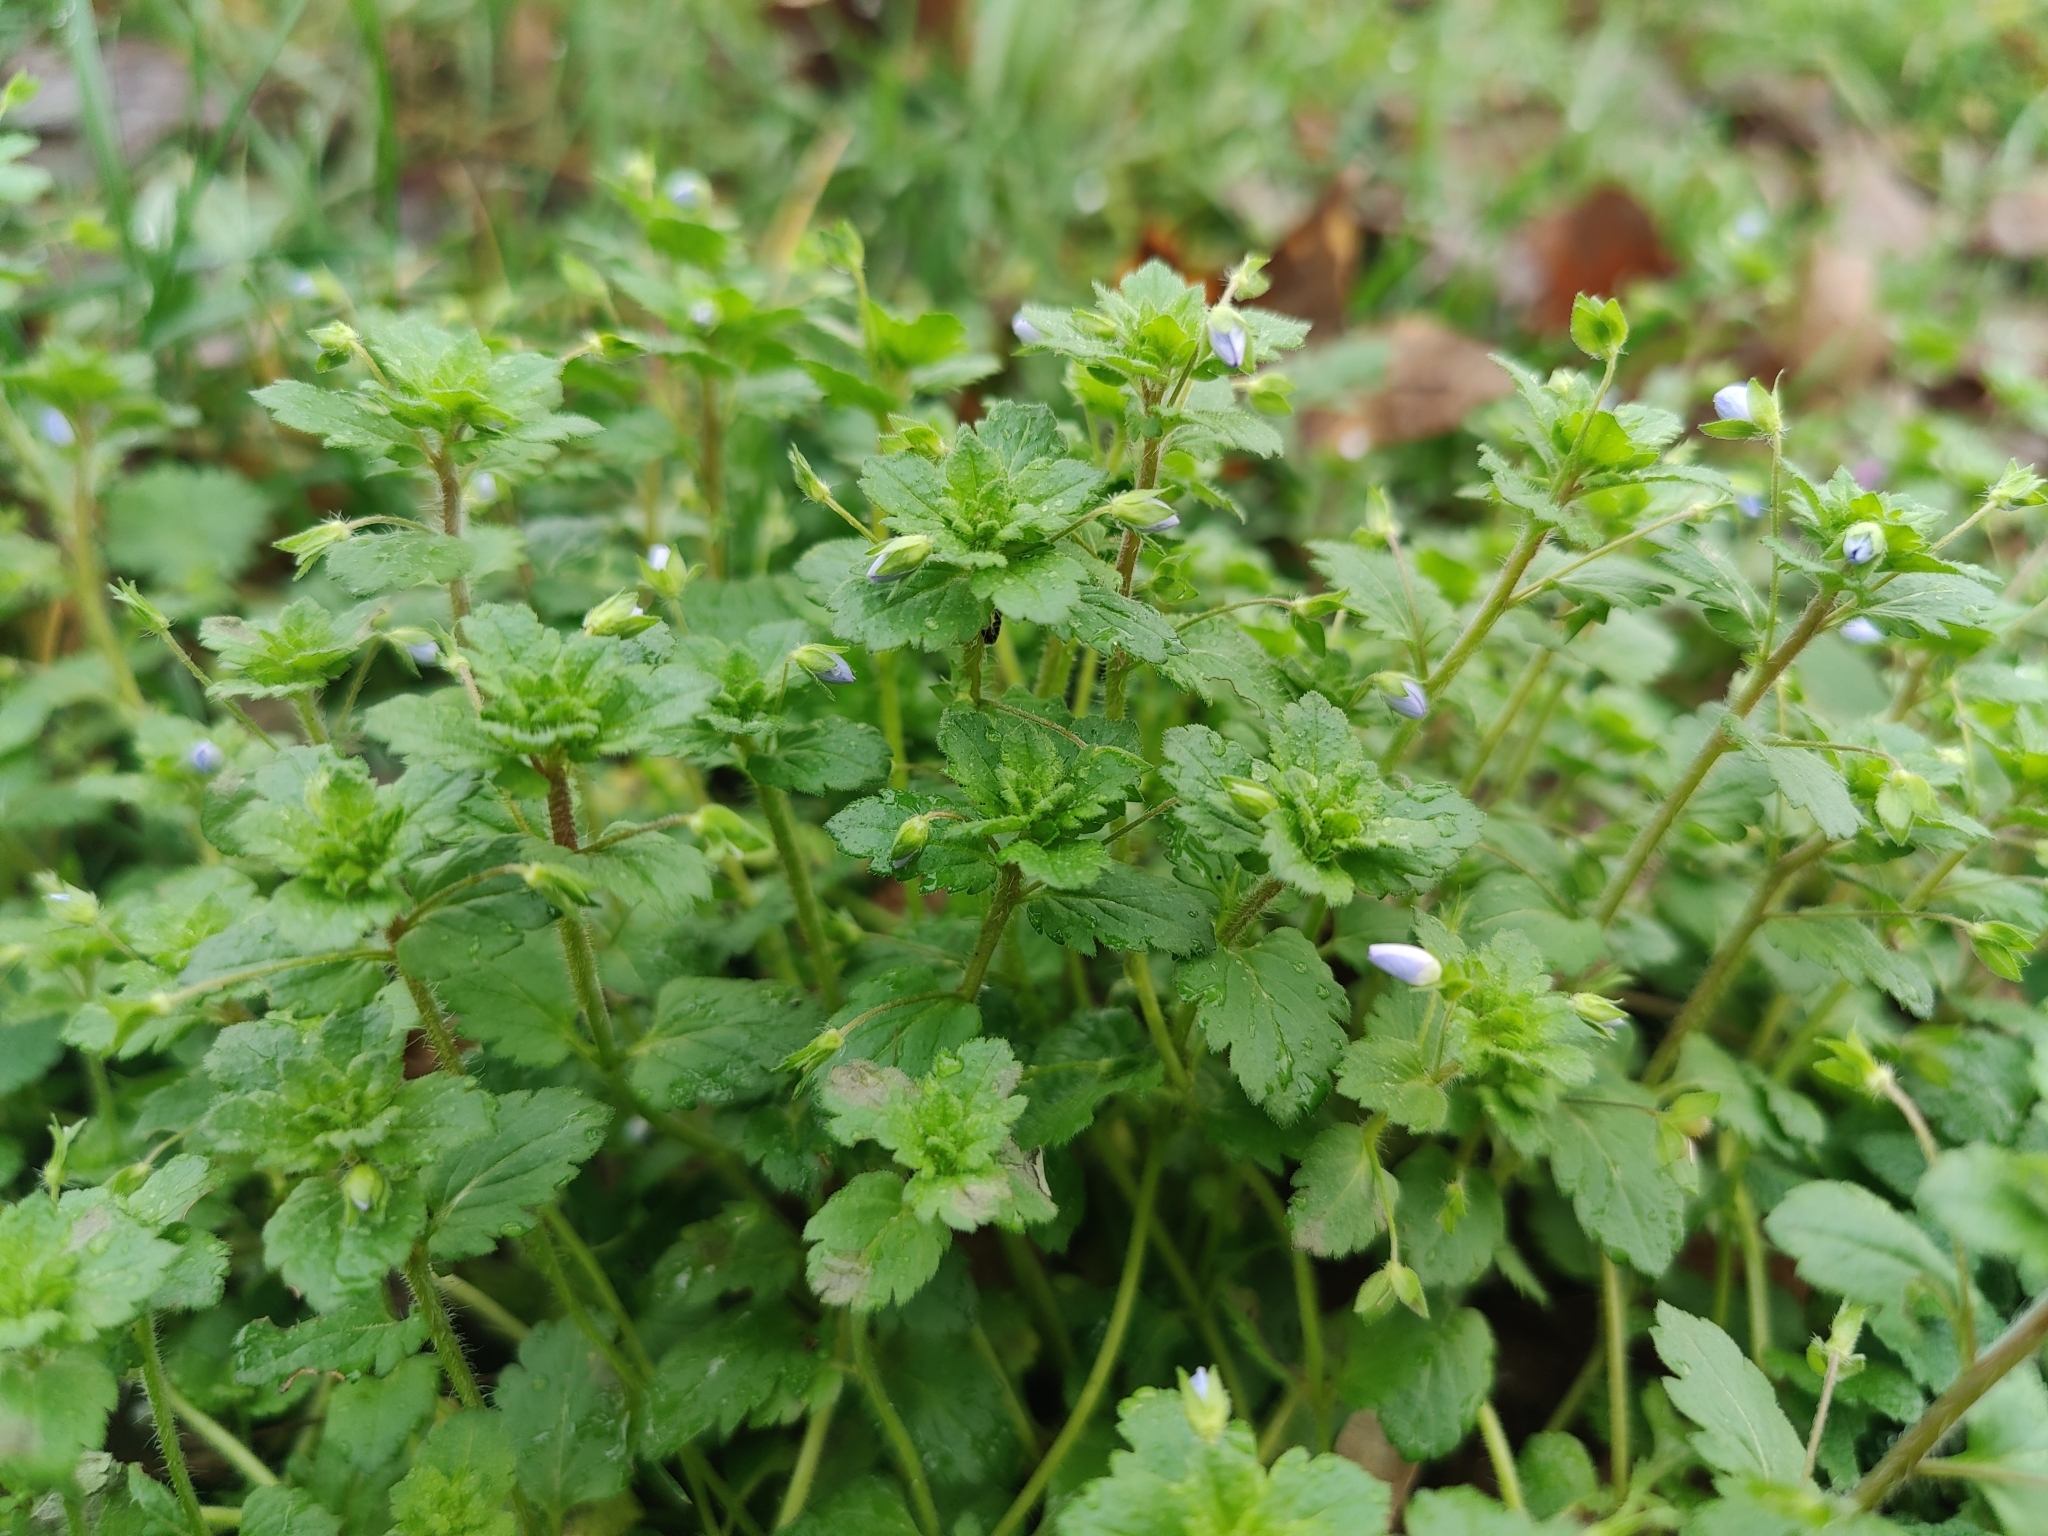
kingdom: Plantae
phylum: Tracheophyta
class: Magnoliopsida
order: Lamiales
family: Plantaginaceae
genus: Veronica
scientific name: Veronica persica
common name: Common field-speedwell
